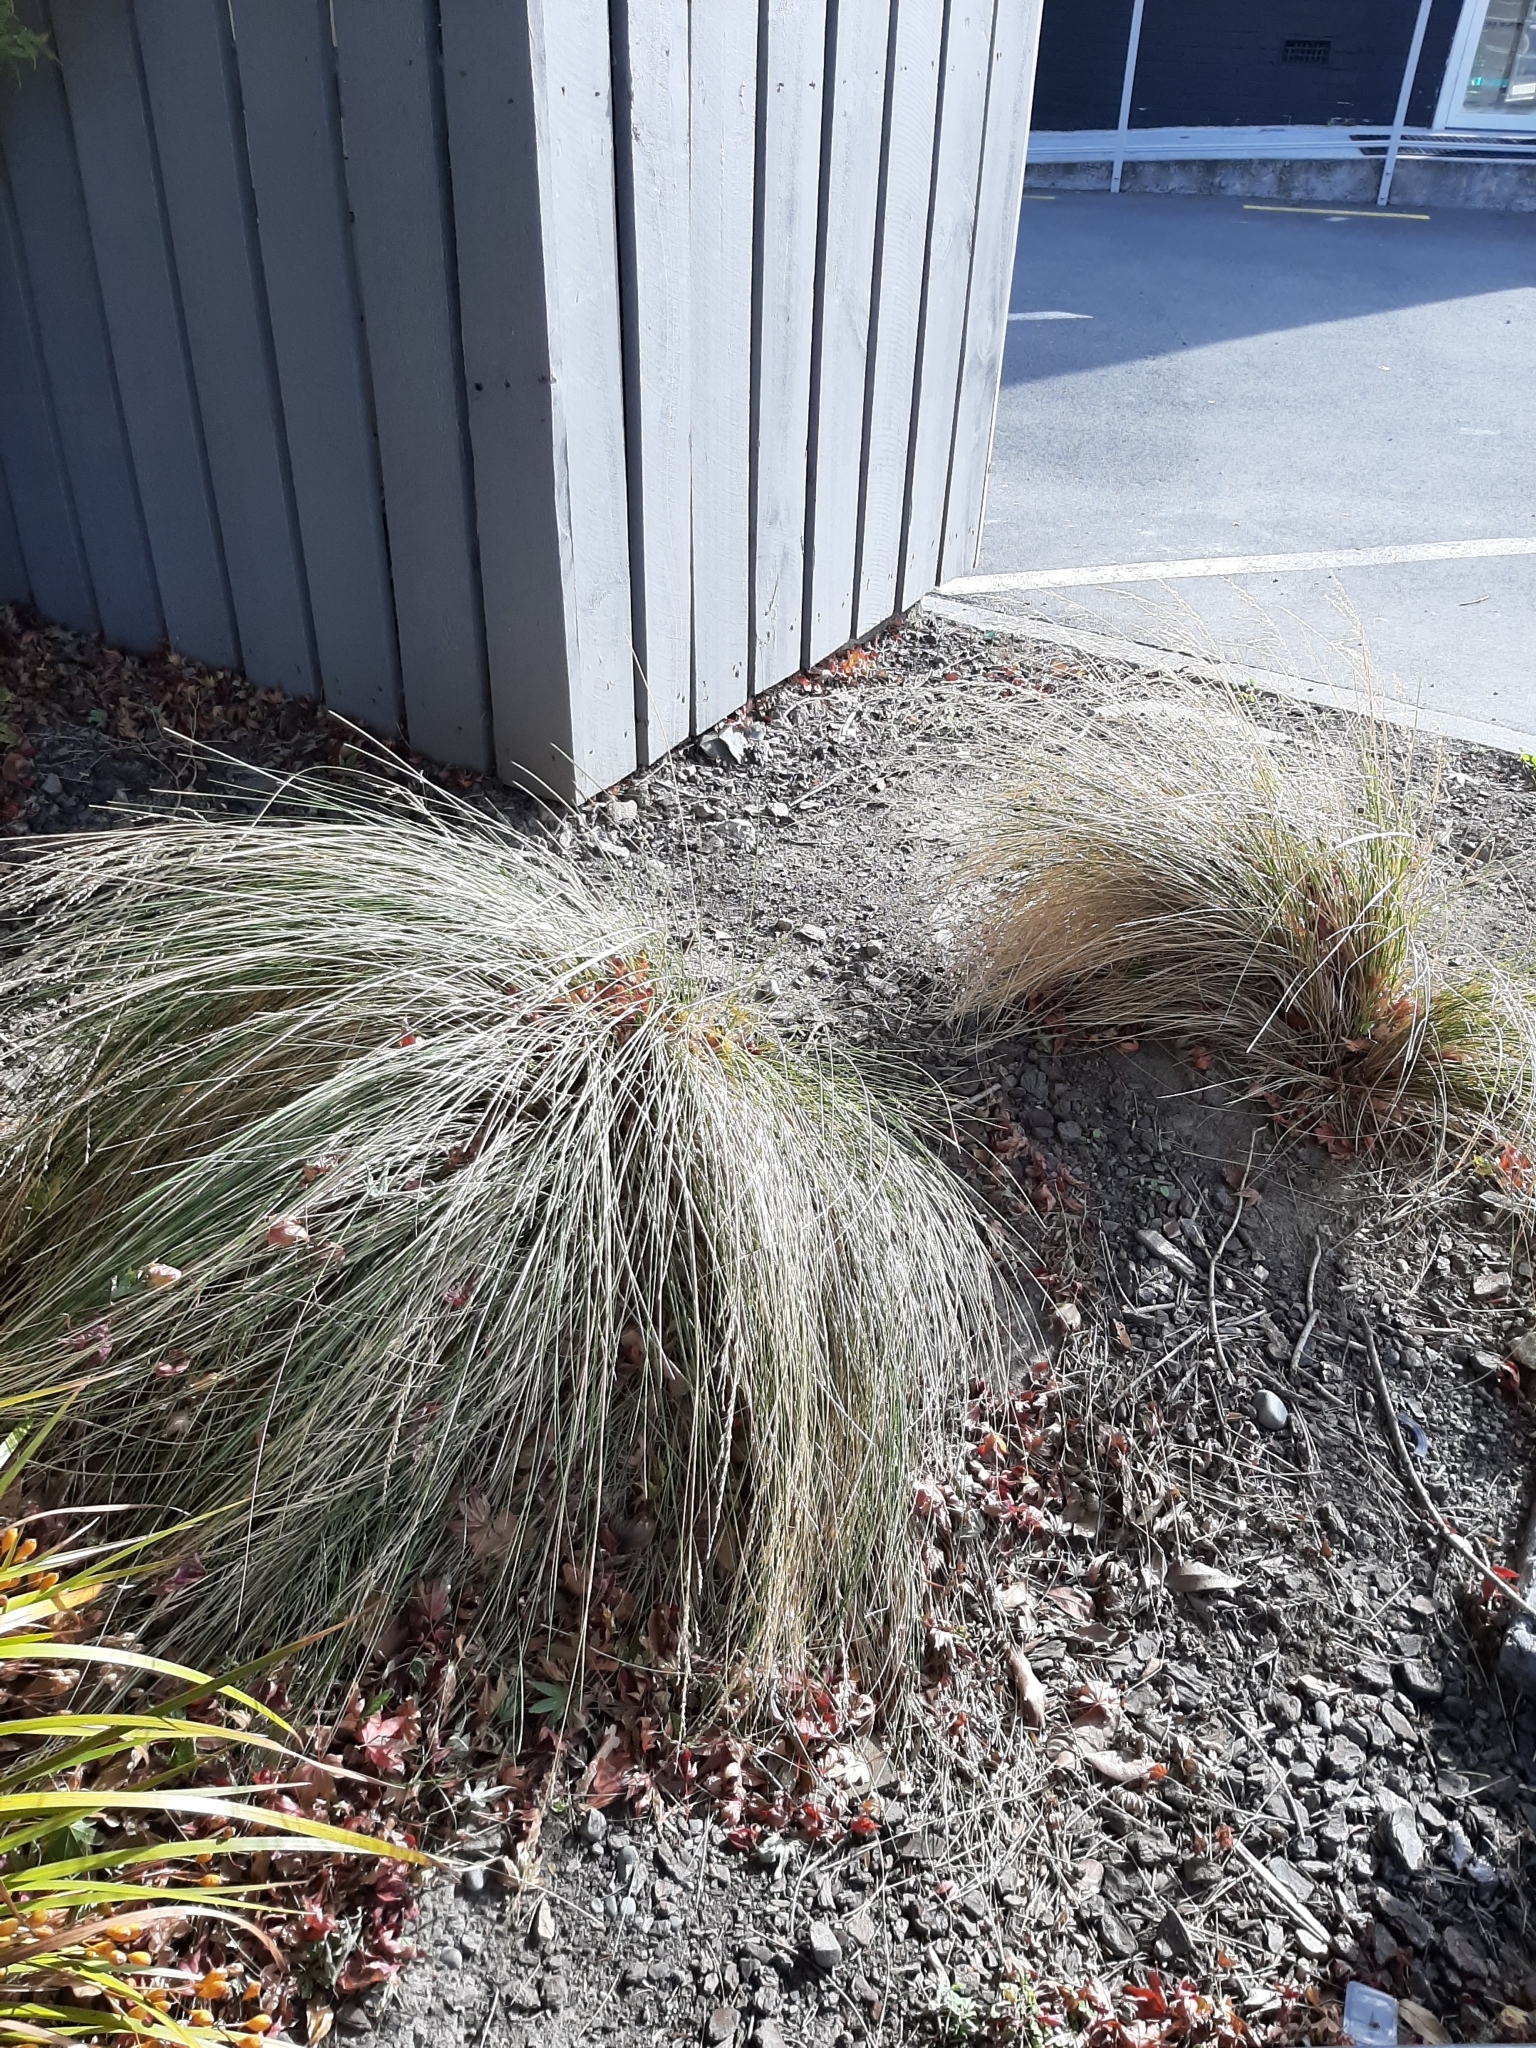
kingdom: Plantae
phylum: Tracheophyta
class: Liliopsida
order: Poales
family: Poaceae
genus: Poa
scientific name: Poa cita
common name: Silver tussock
